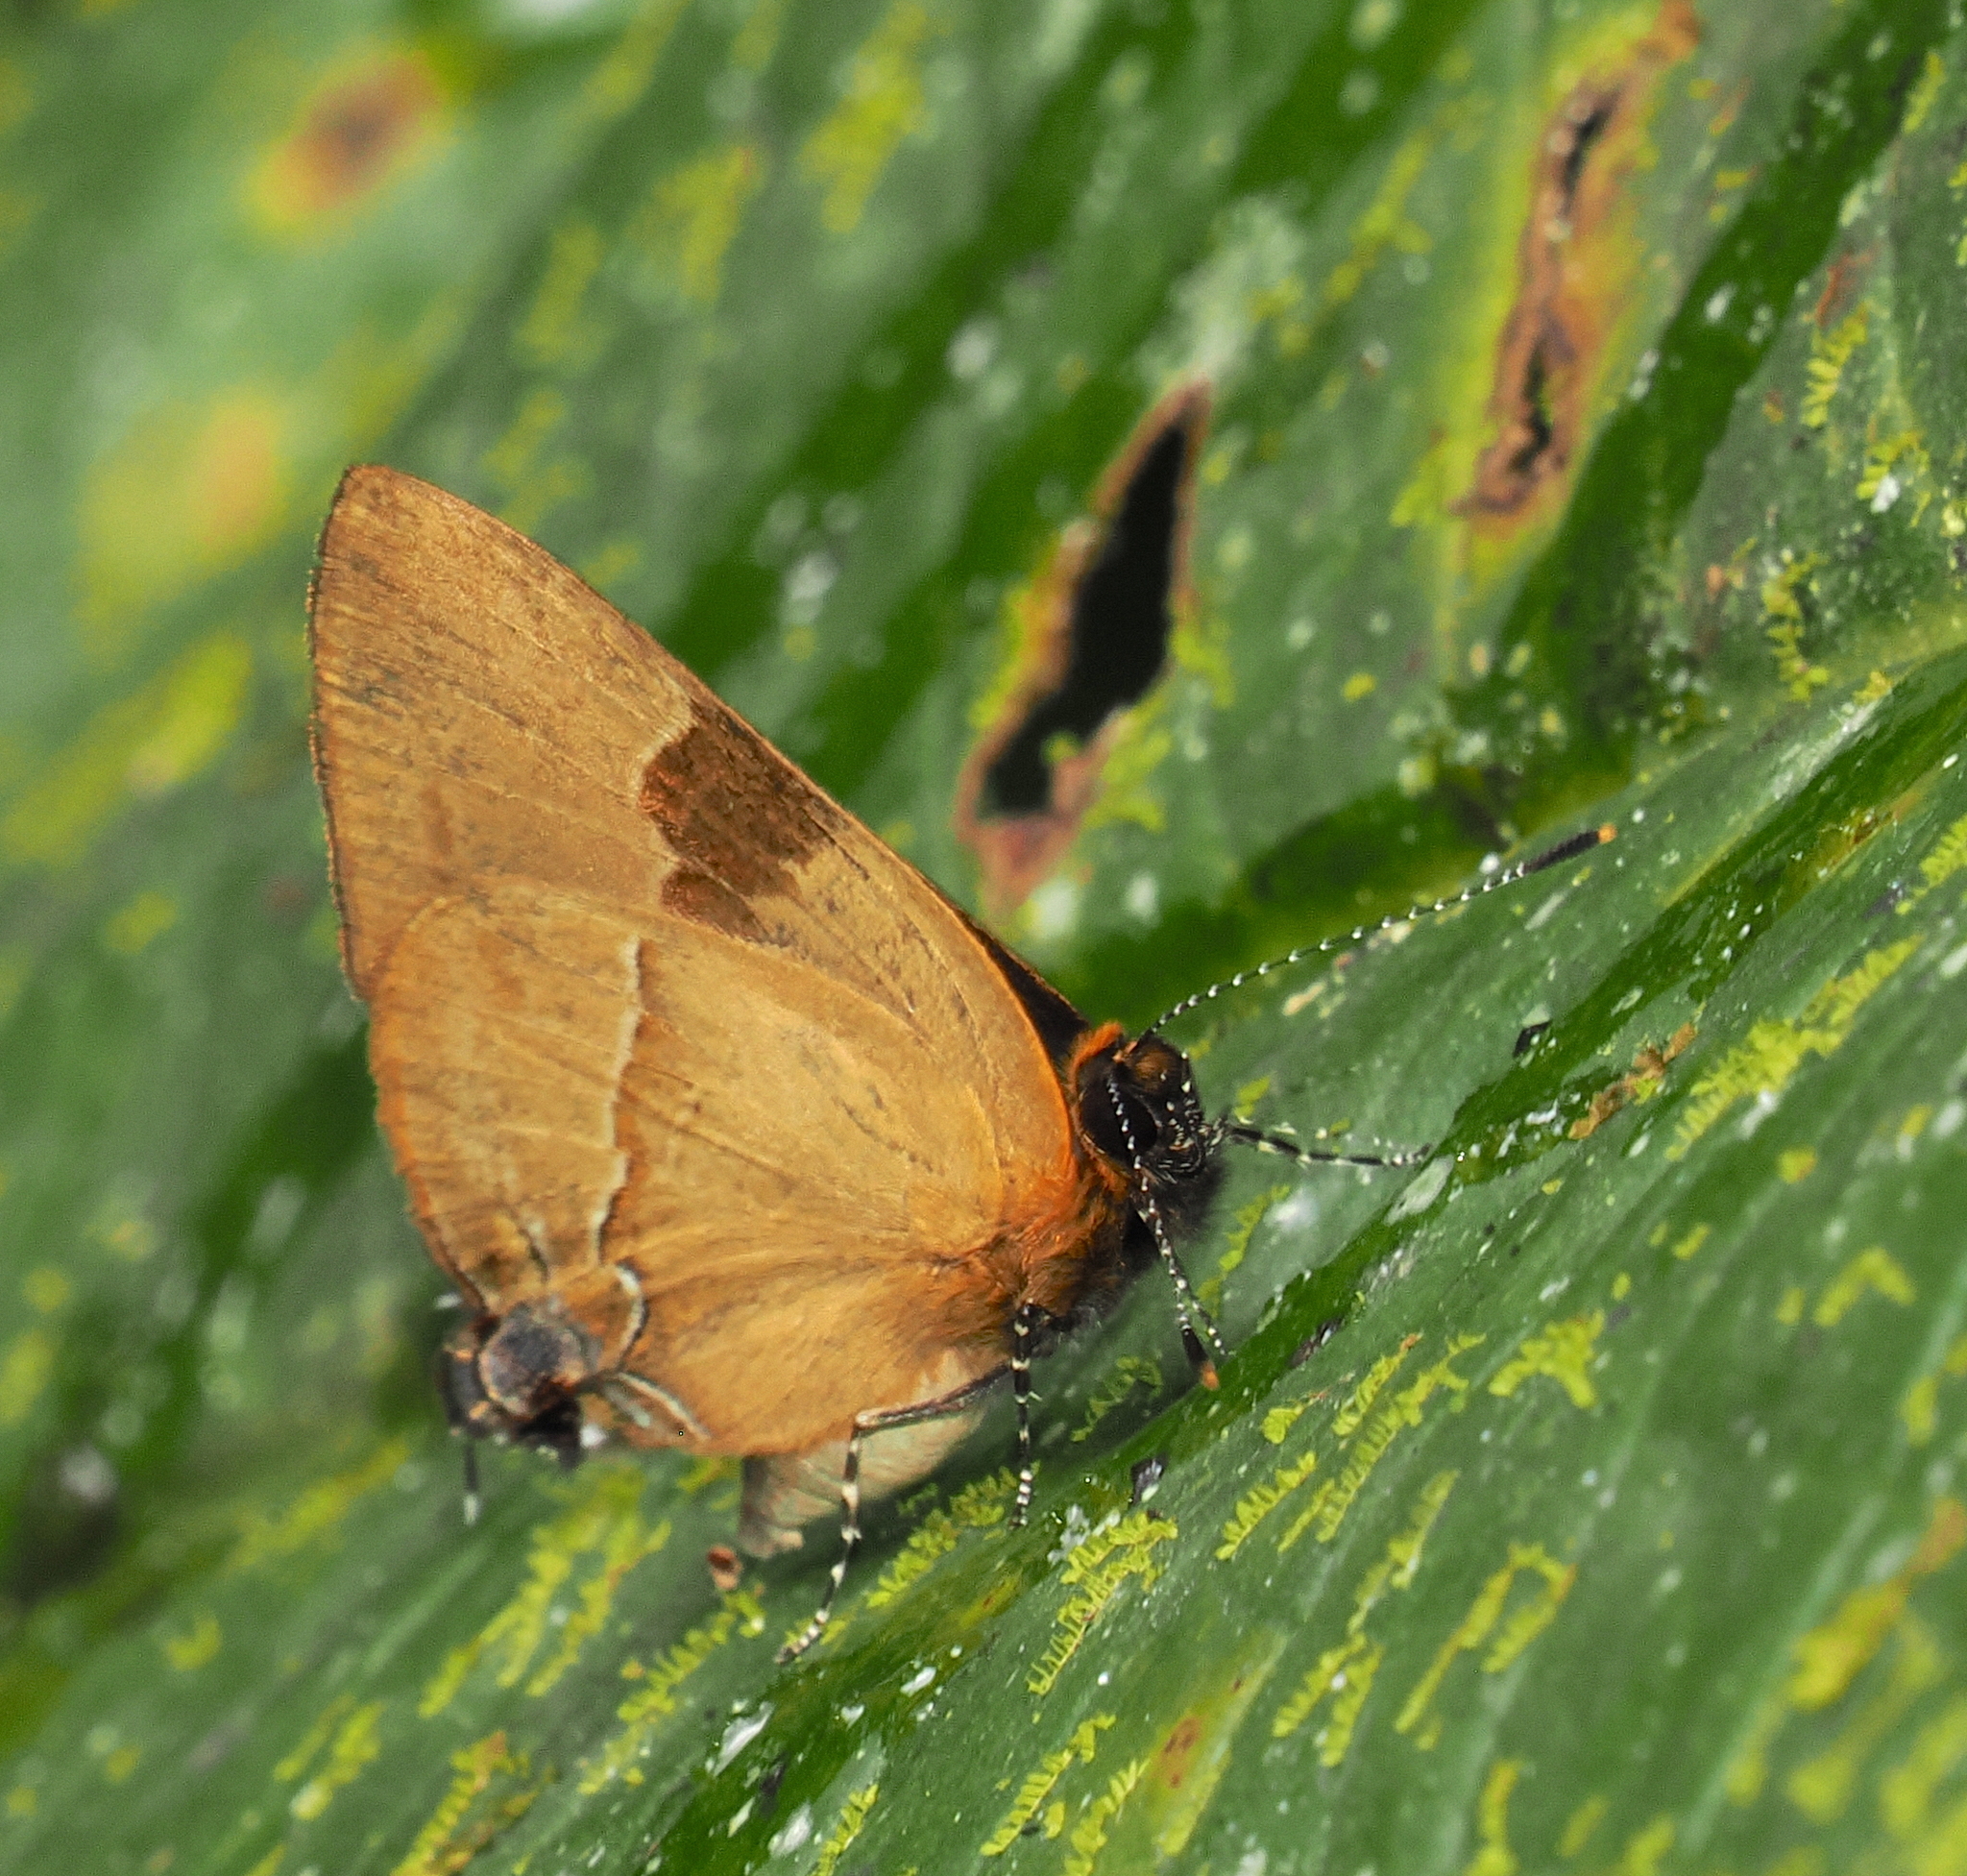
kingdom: Animalia
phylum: Arthropoda
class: Insecta
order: Lepidoptera
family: Lycaenidae
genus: Calycopis
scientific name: Calycopis calus
